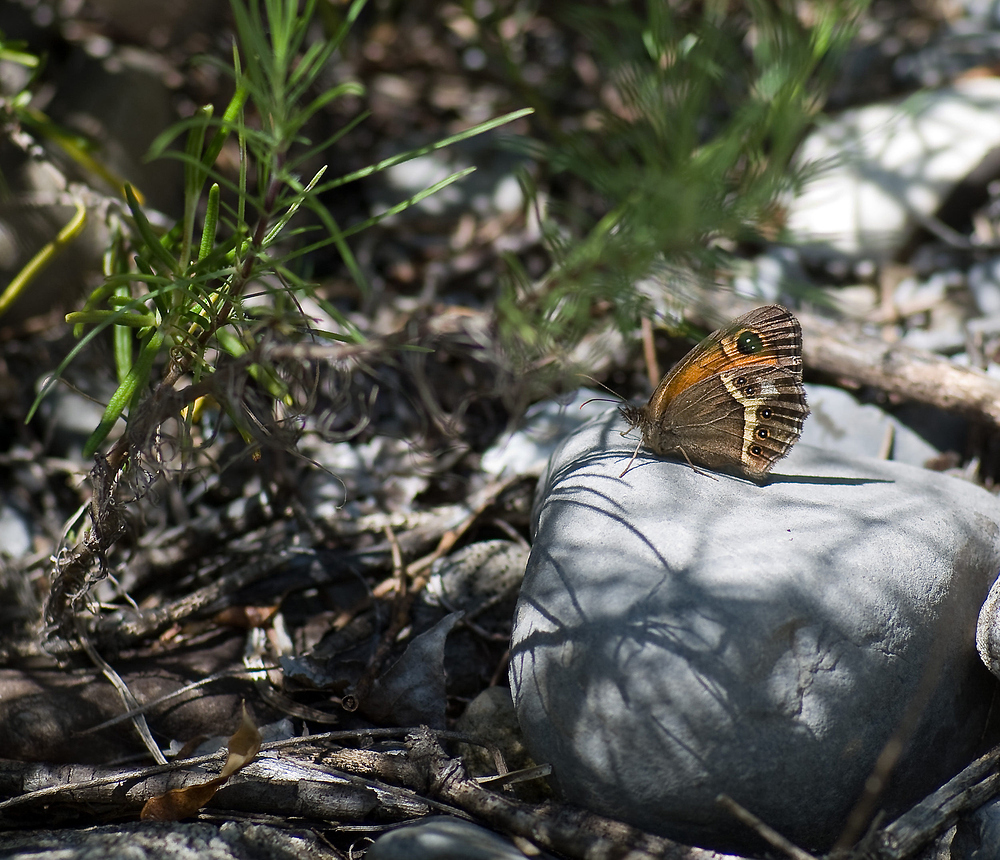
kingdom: Animalia
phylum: Arthropoda
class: Insecta
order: Lepidoptera
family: Nymphalidae
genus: Pyronia
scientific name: Pyronia bathseba
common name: Spanish gatekeeper
